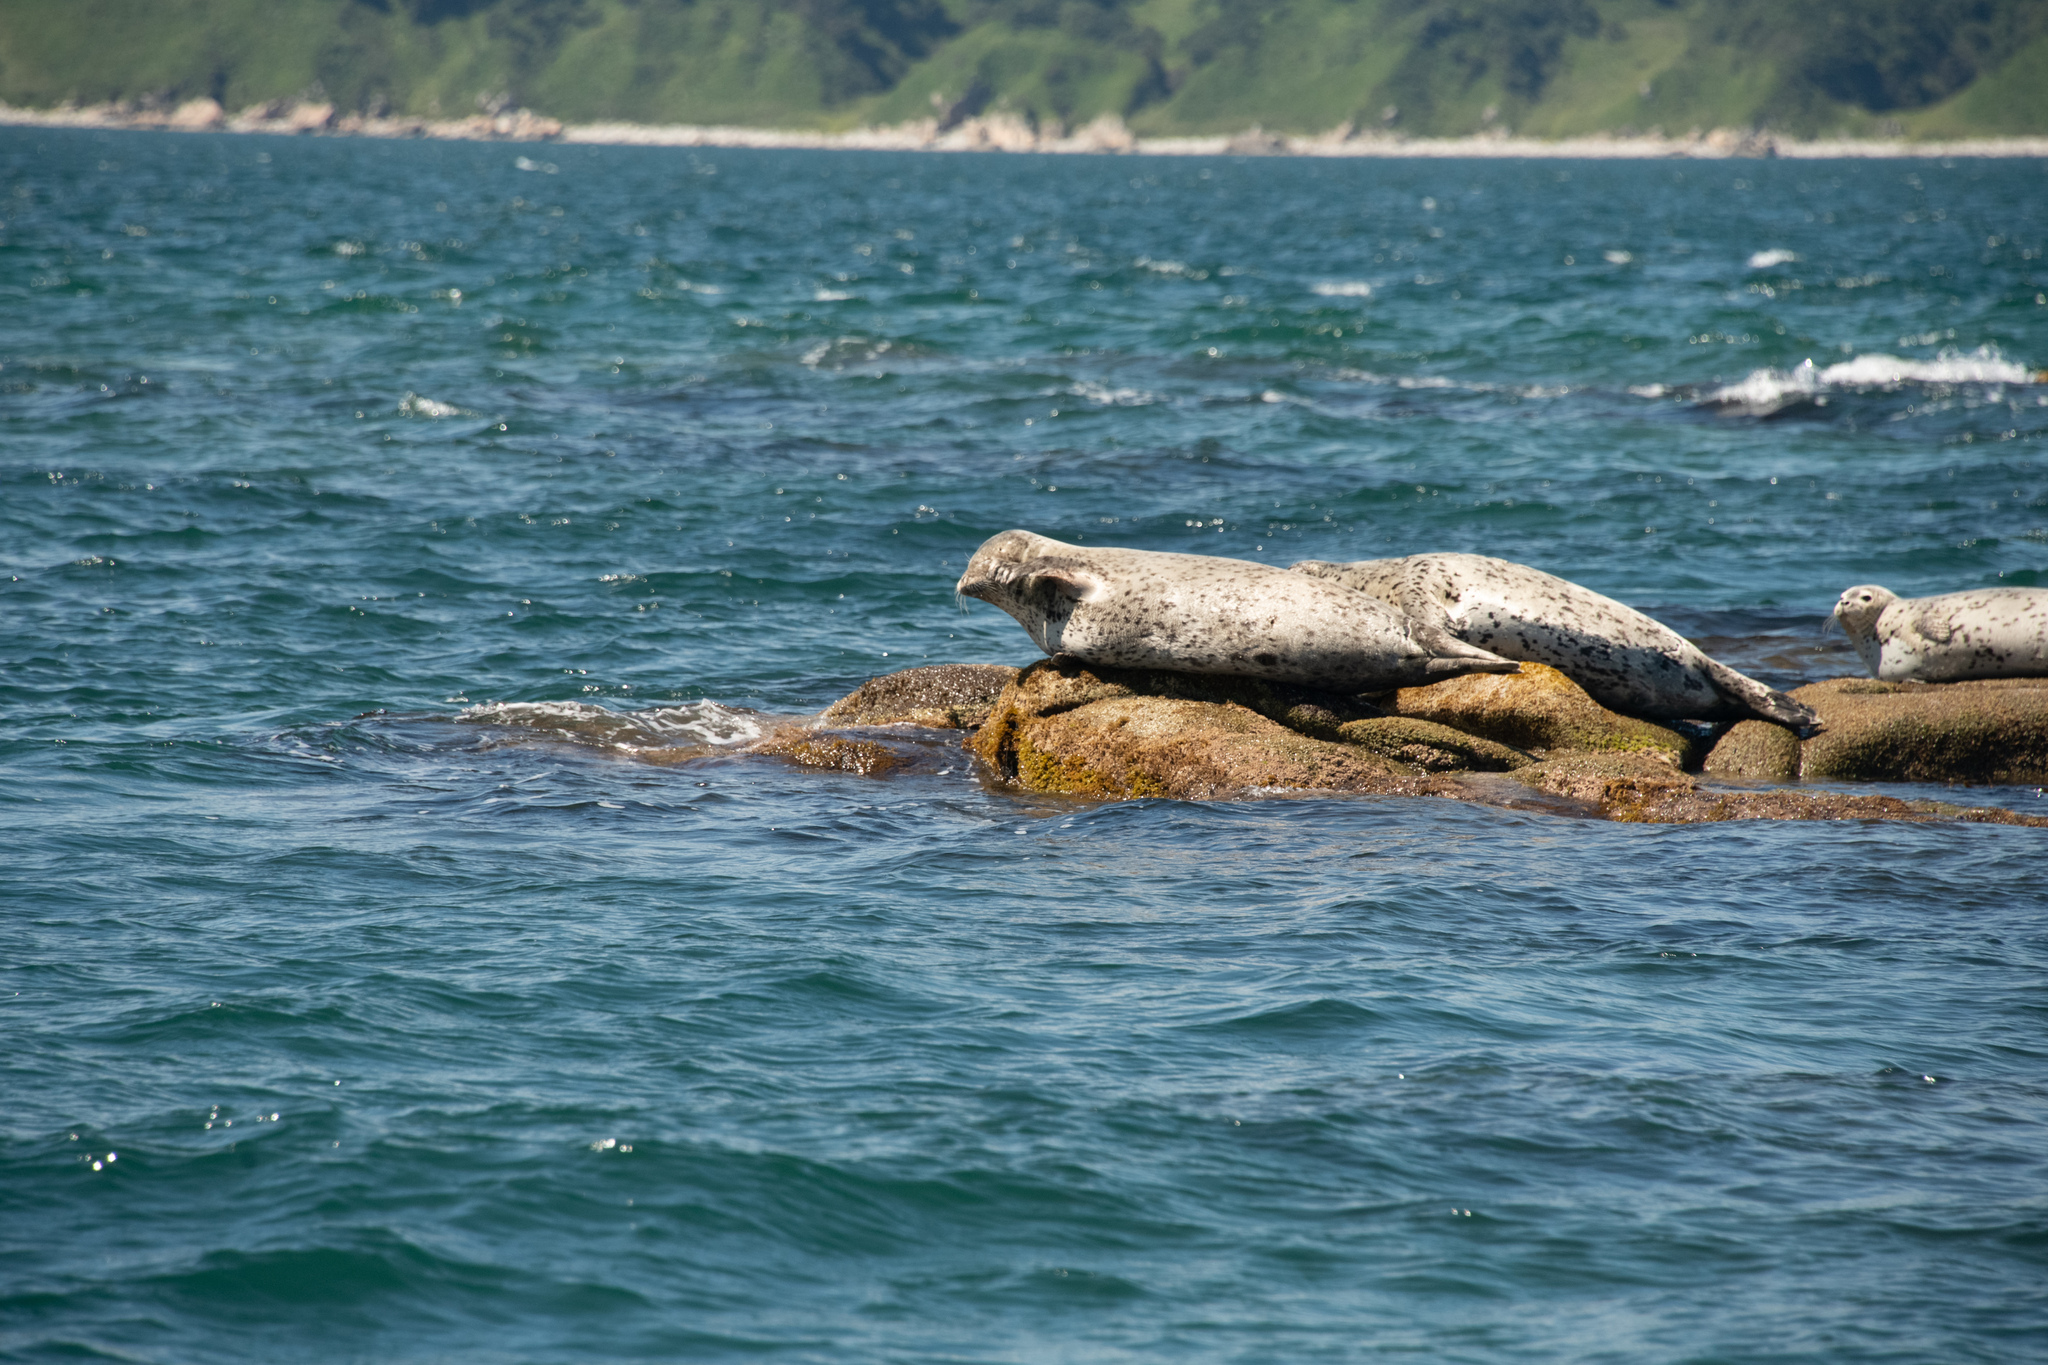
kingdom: Animalia
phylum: Chordata
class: Mammalia
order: Carnivora
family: Phocidae
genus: Phoca
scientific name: Phoca largha
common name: Spotted seal
